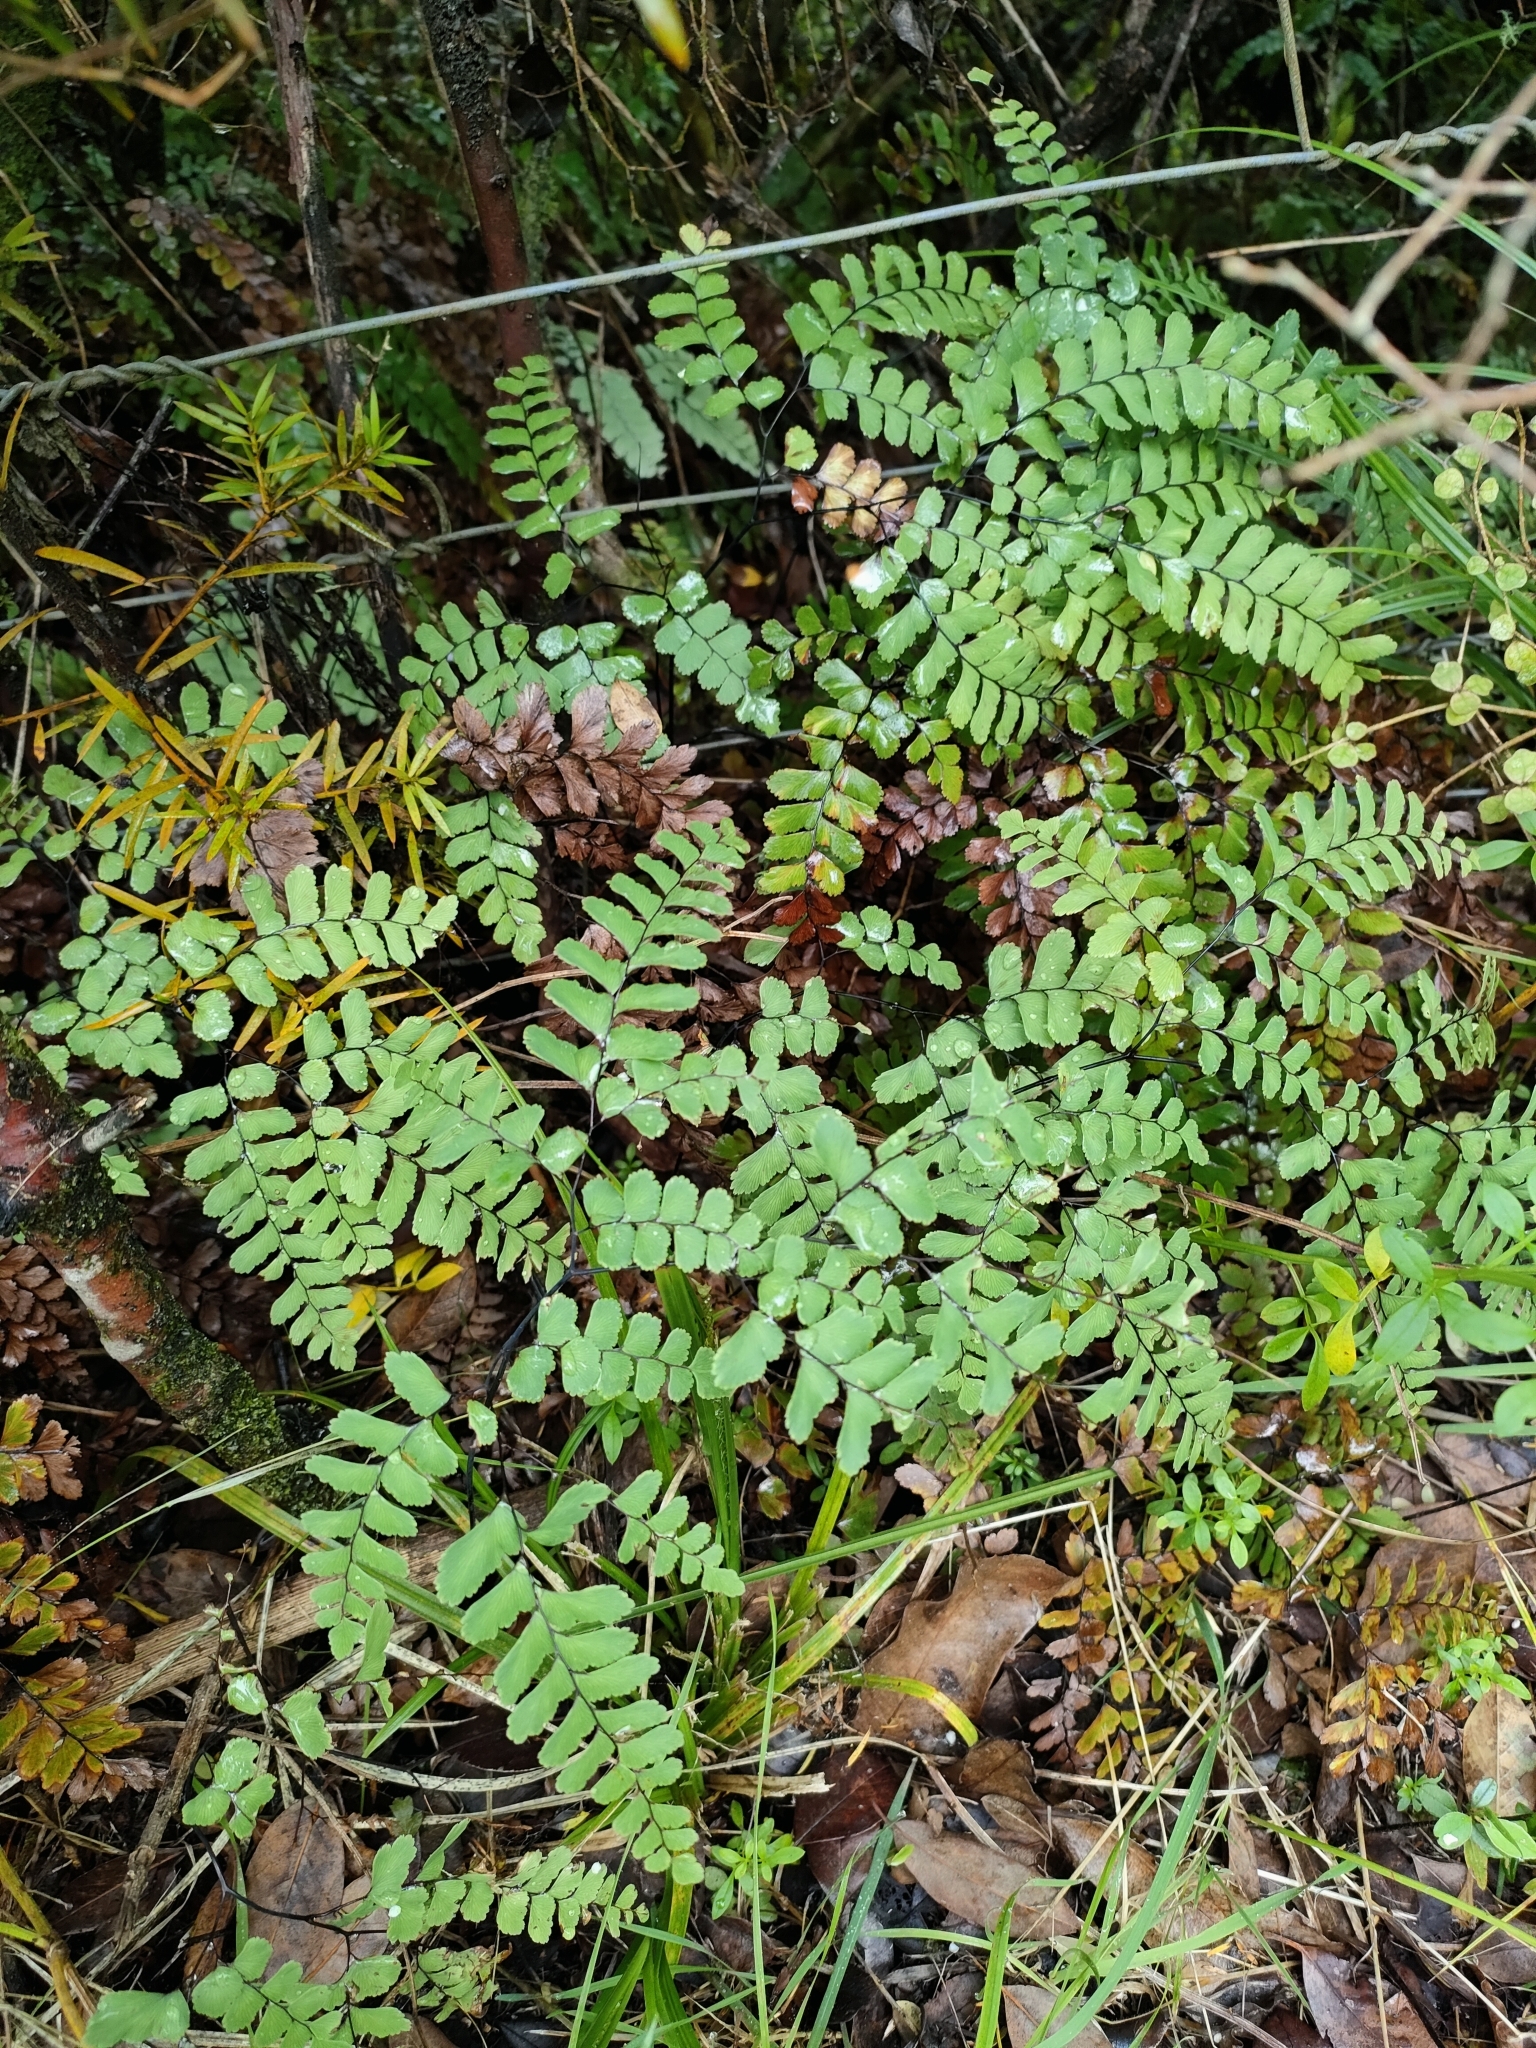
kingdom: Plantae
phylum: Tracheophyta
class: Polypodiopsida
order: Polypodiales
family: Pteridaceae
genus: Adiantum
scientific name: Adiantum cunninghamii
